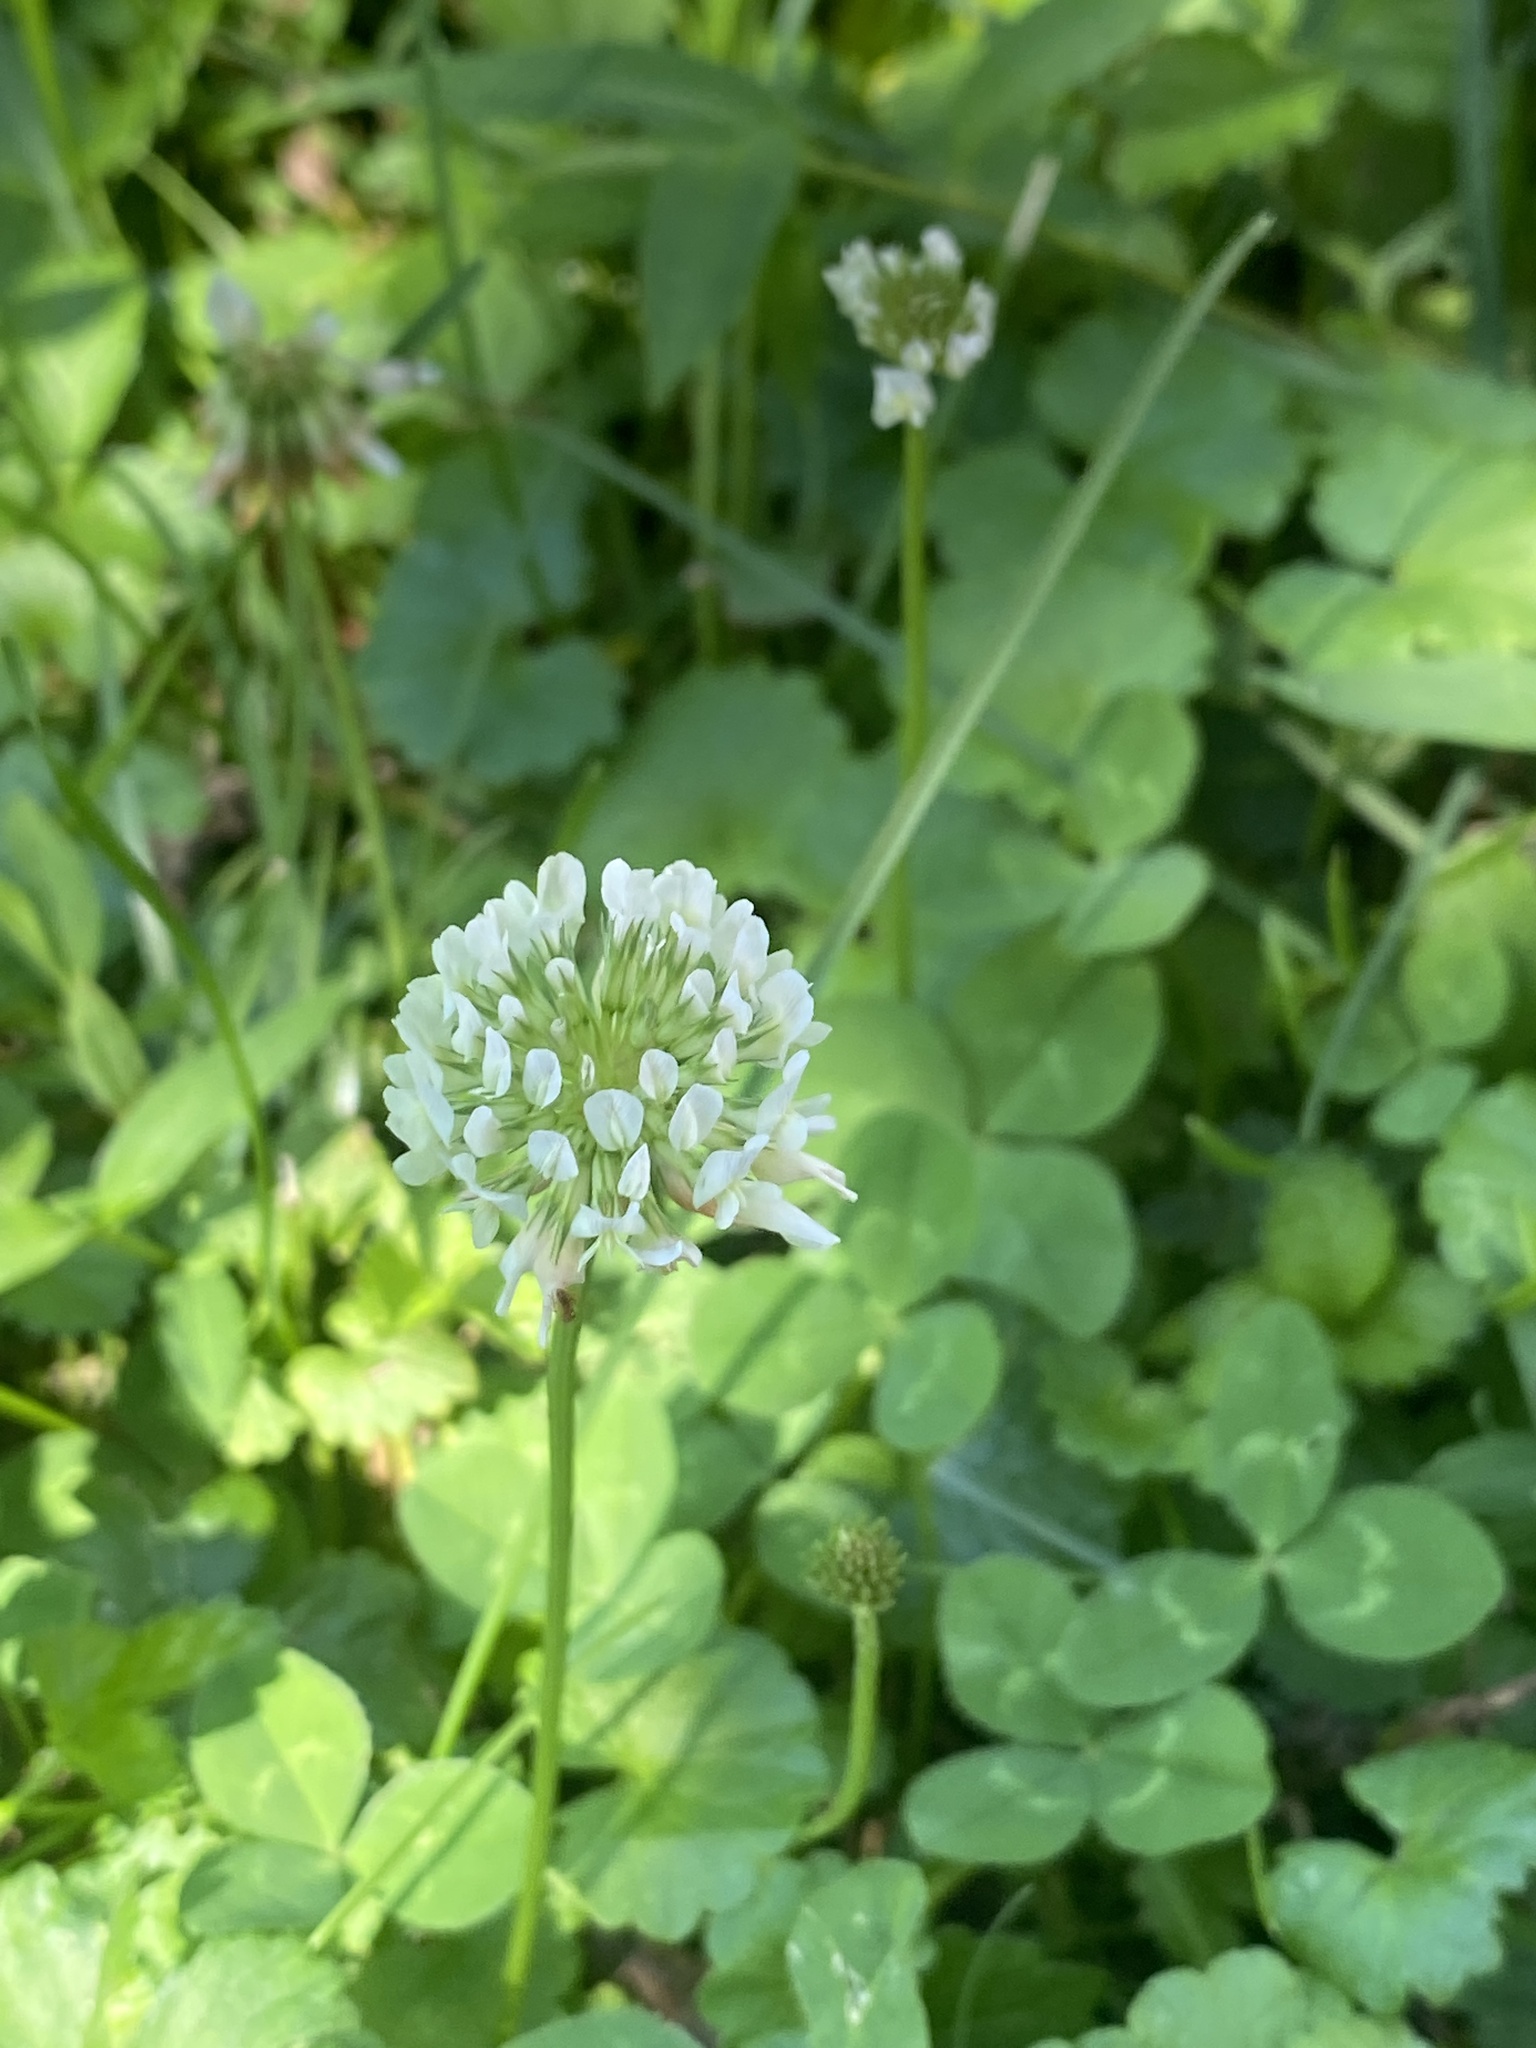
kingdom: Plantae
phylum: Tracheophyta
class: Magnoliopsida
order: Fabales
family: Fabaceae
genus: Trifolium
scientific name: Trifolium repens
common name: White clover
